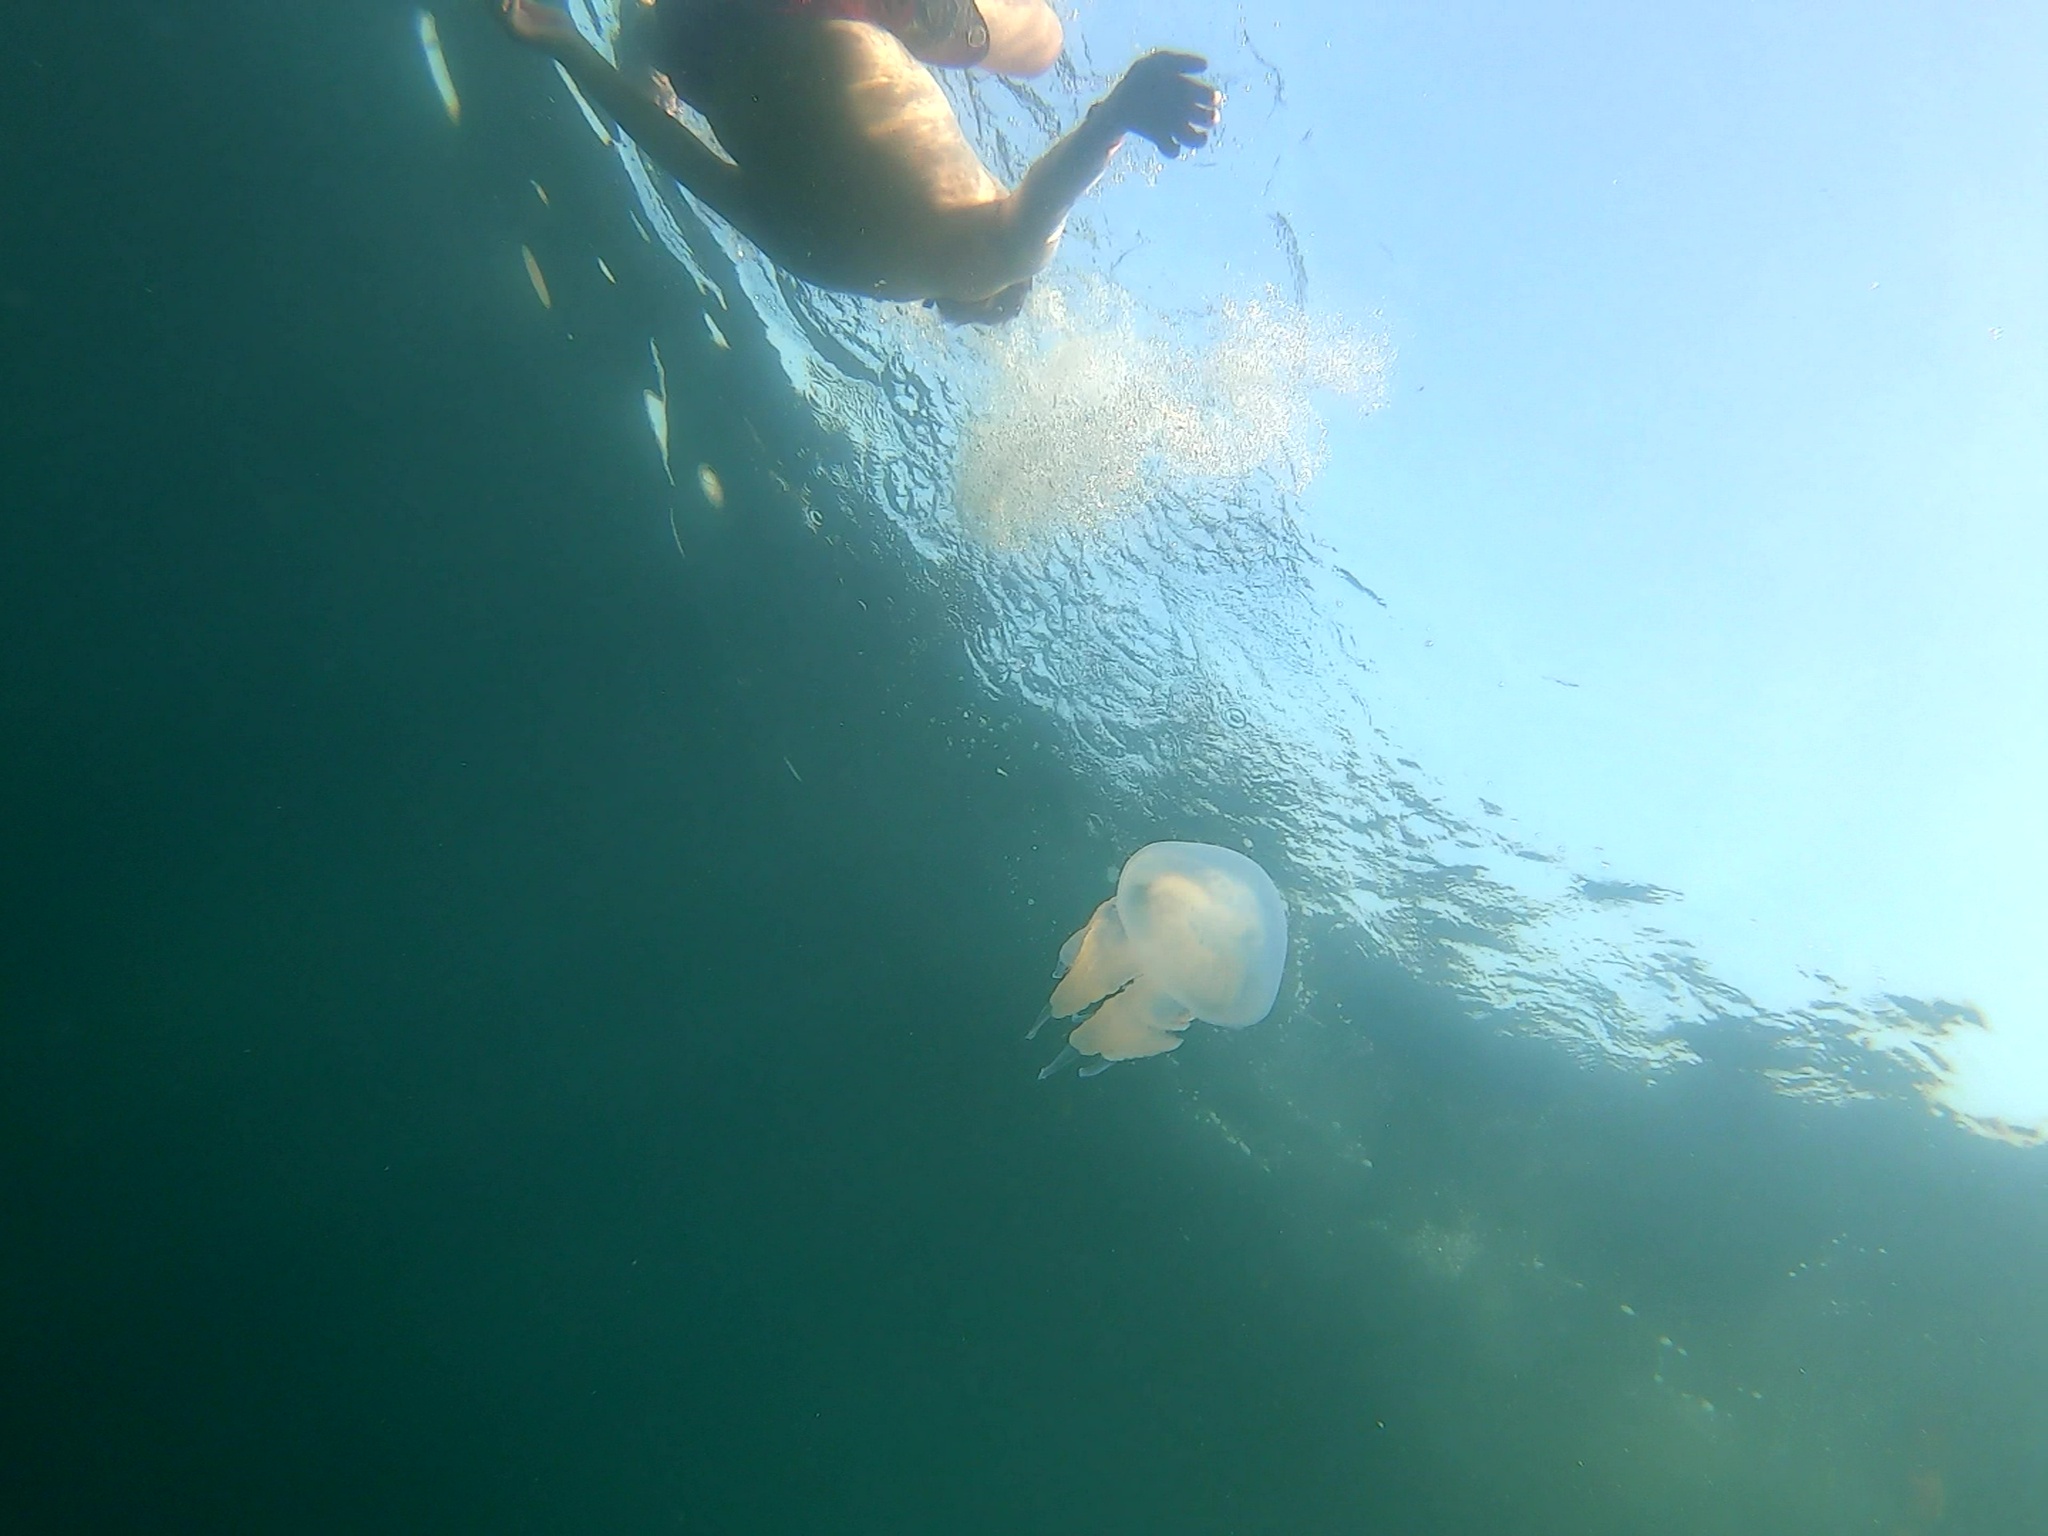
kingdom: Animalia
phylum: Cnidaria
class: Scyphozoa
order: Rhizostomeae
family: Rhizostomatidae
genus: Rhizostoma
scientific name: Rhizostoma pulmo
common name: Barrel jellyfish
